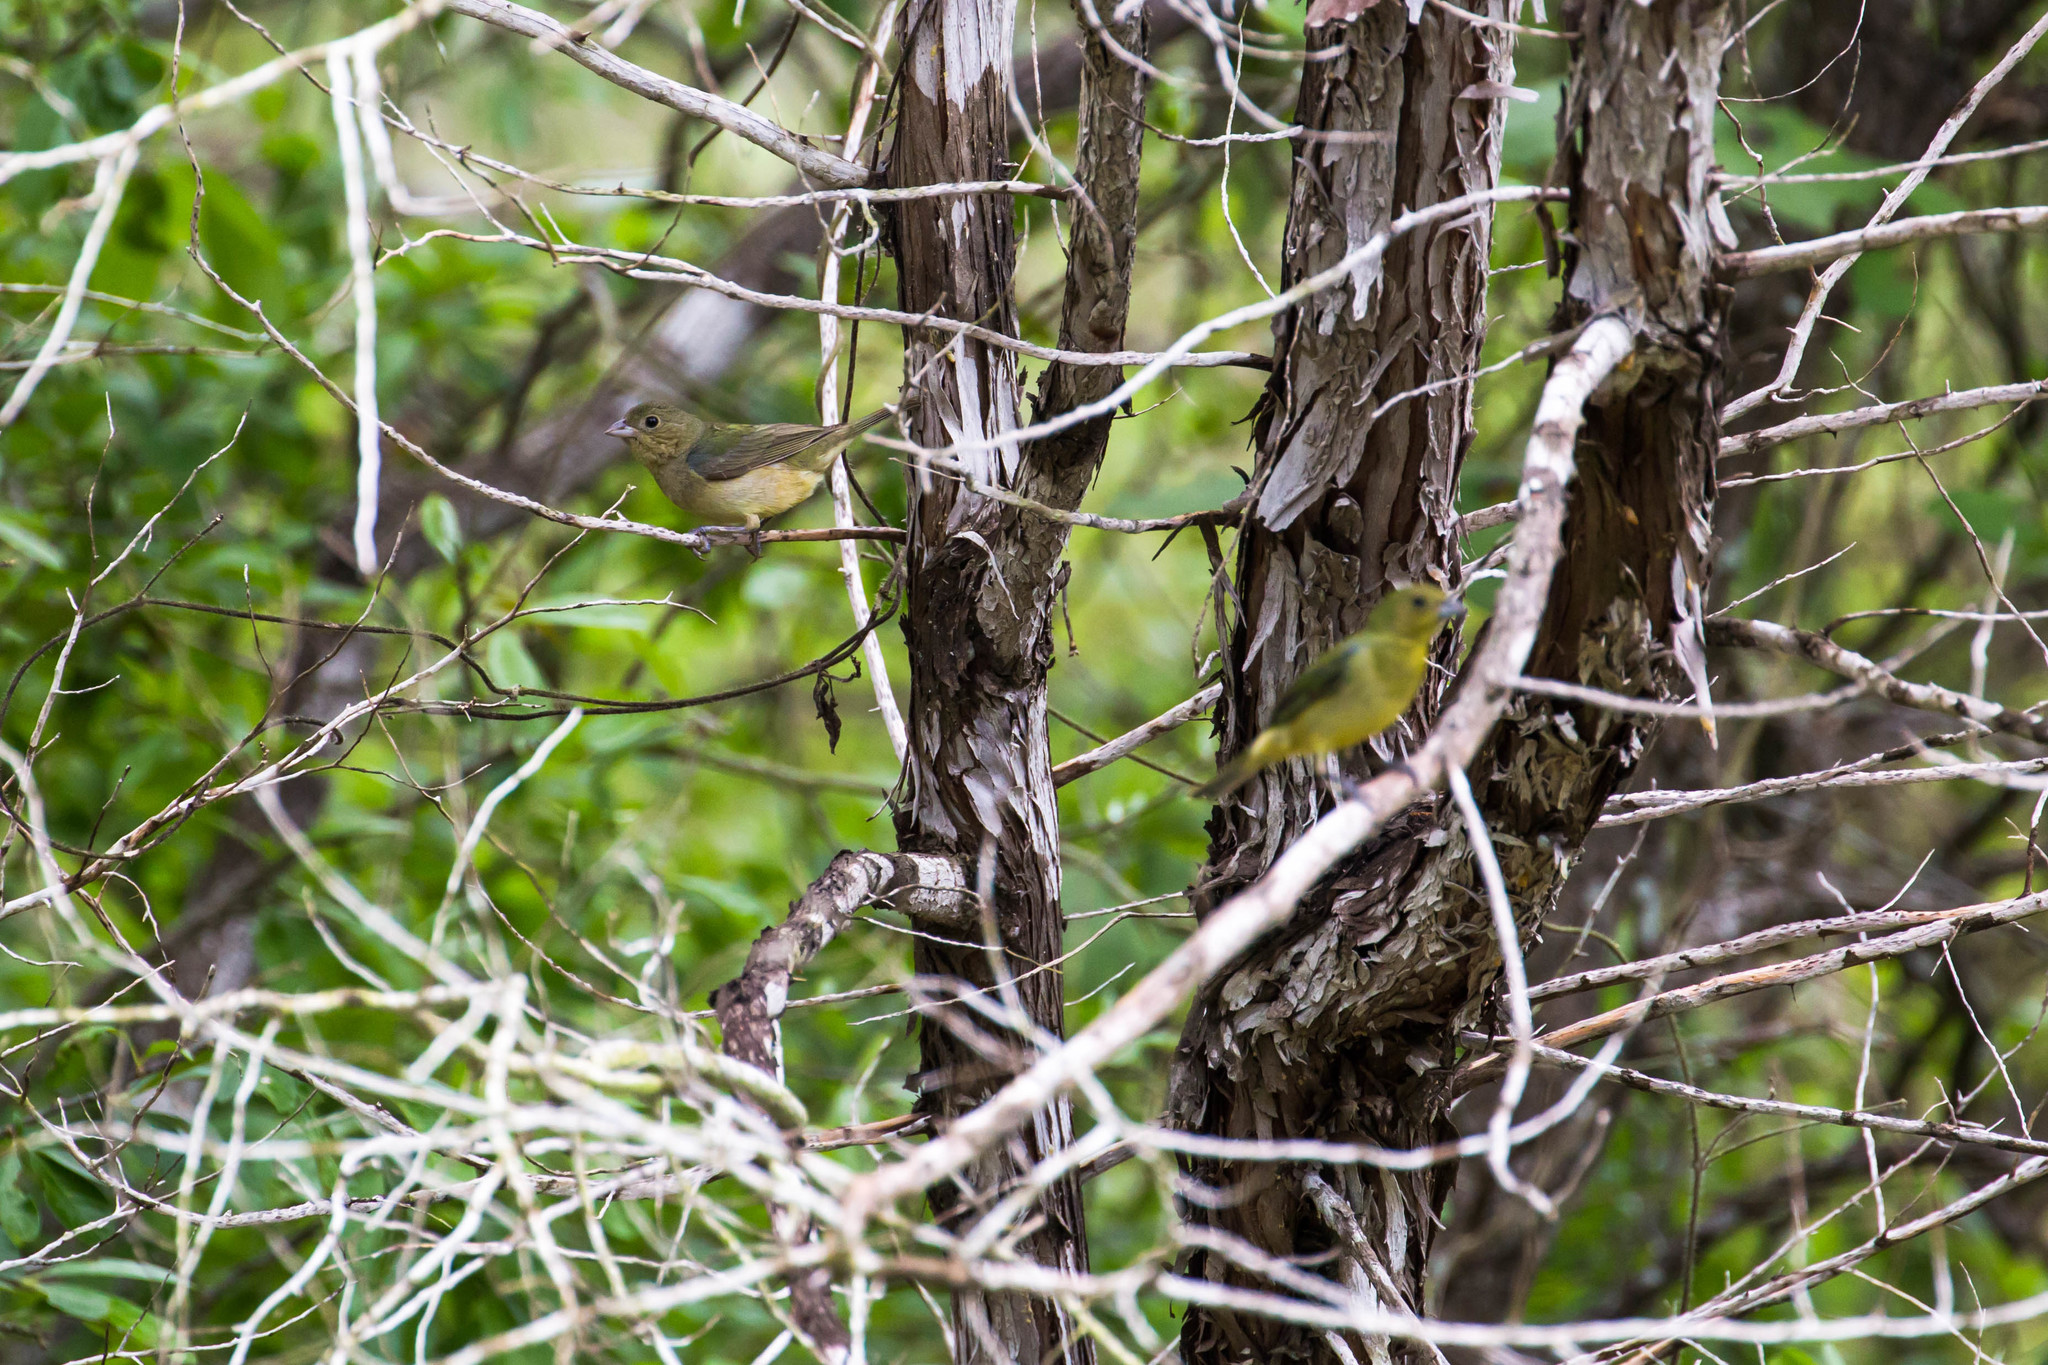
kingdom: Animalia
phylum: Chordata
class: Aves
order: Passeriformes
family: Cardinalidae
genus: Passerina
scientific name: Passerina ciris
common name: Painted bunting
